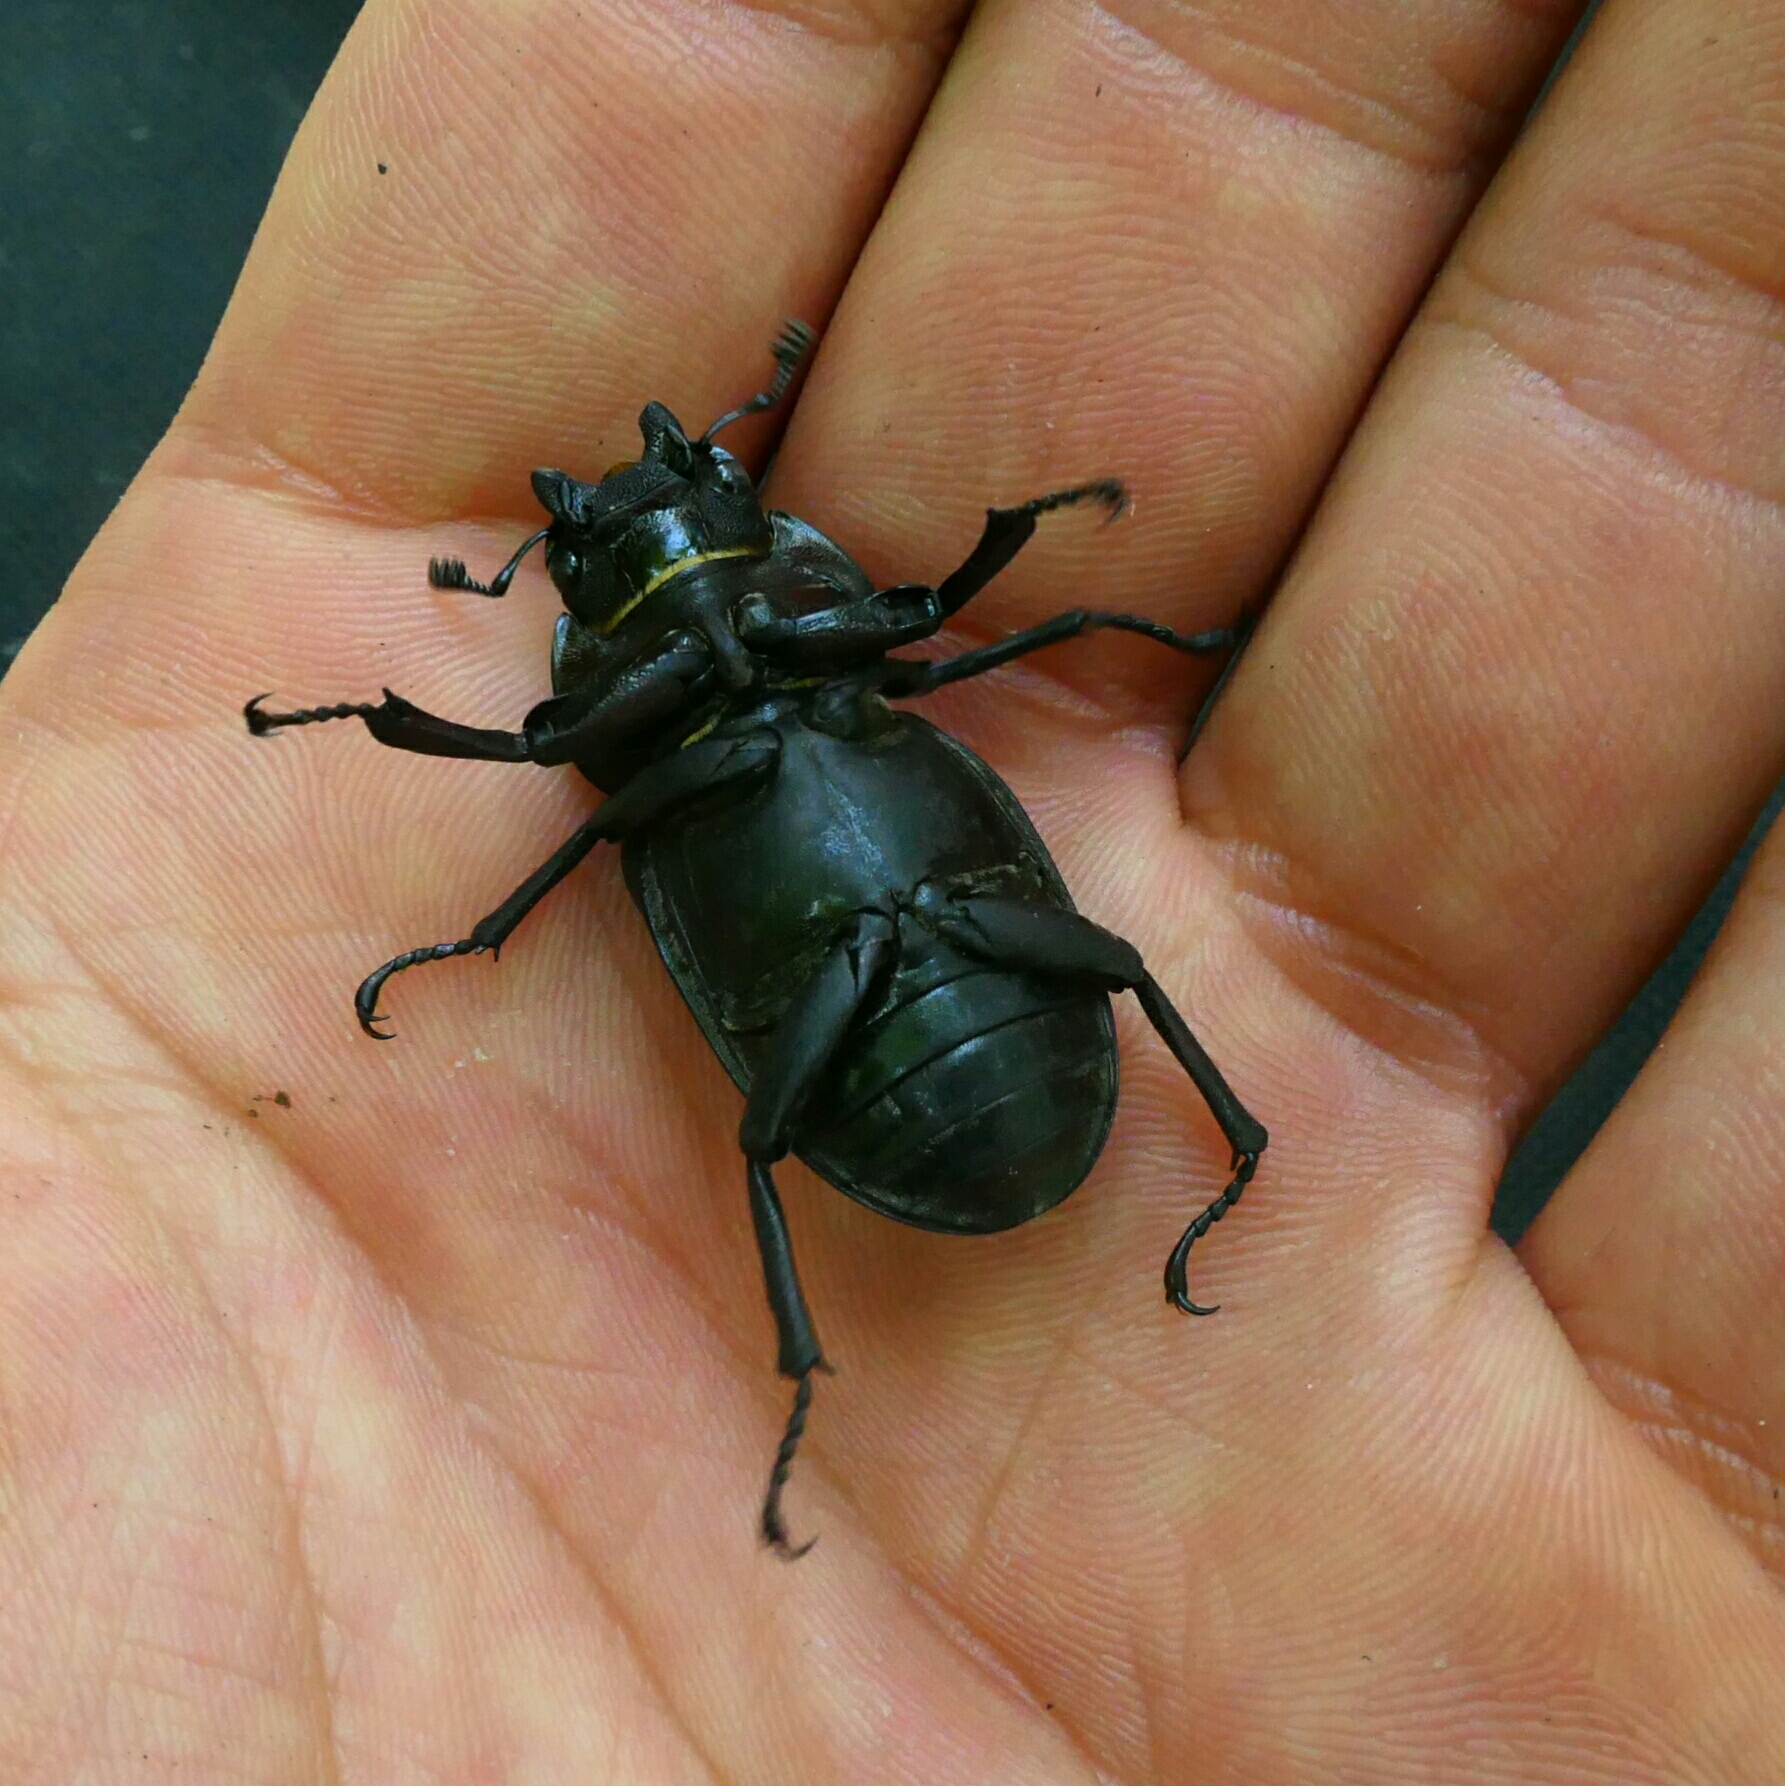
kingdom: Animalia
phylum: Arthropoda
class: Insecta
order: Coleoptera
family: Lucanidae
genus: Lucanus
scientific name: Lucanus cervus
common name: Stag beetle
